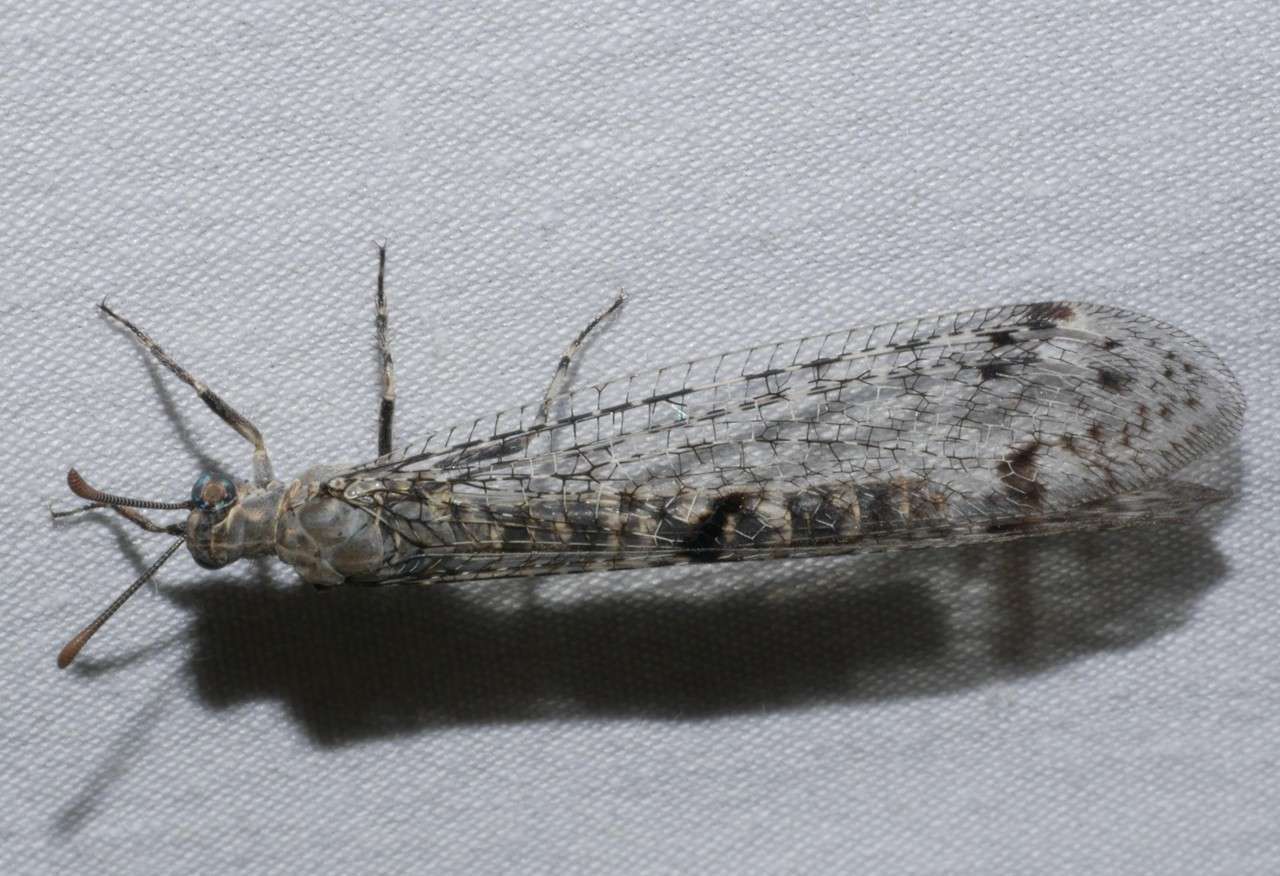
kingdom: Animalia
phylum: Arthropoda
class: Insecta
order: Neuroptera
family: Myrmeleontidae
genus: Bandidus
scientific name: Bandidus breviusculus
